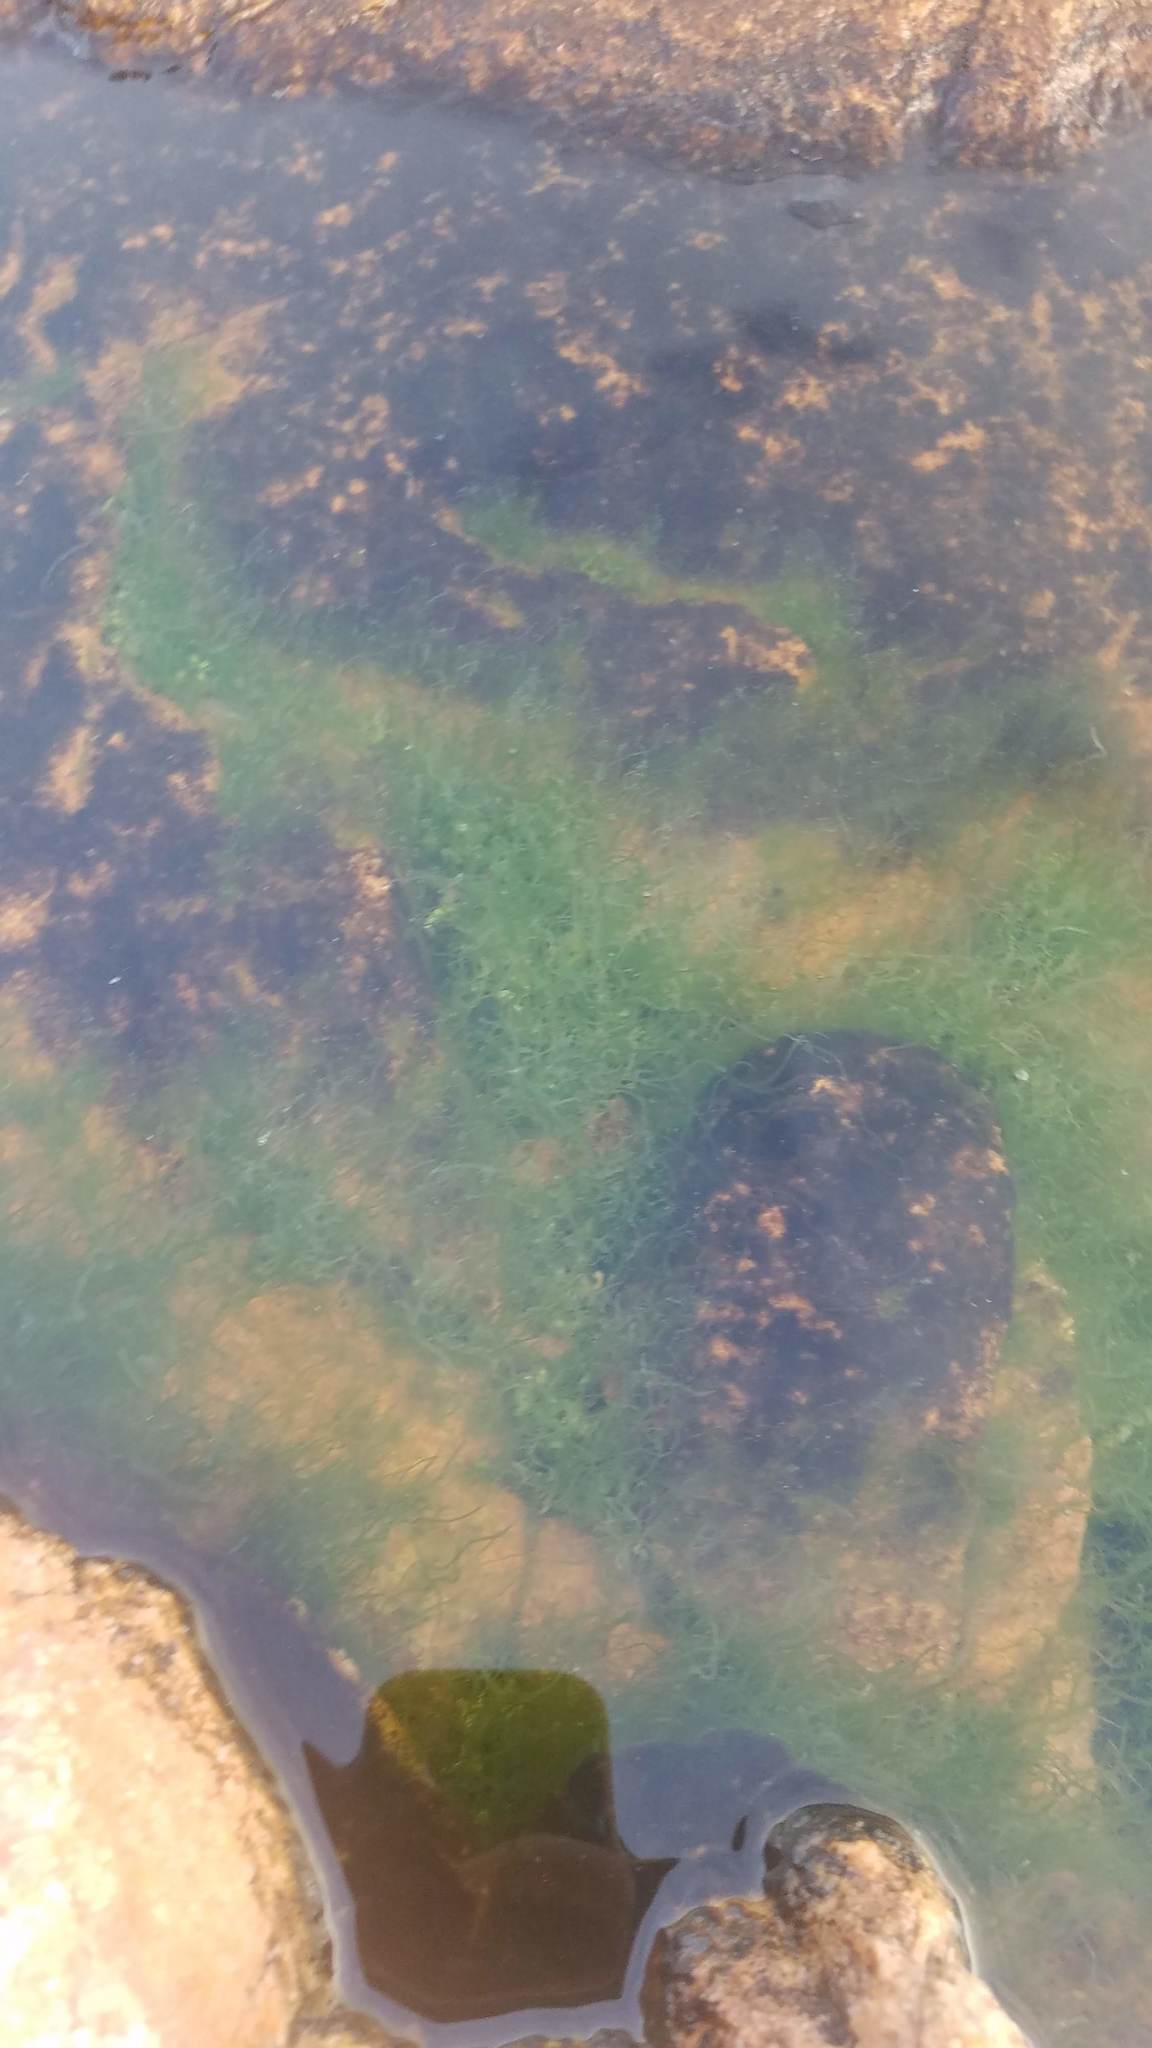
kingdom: Plantae
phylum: Chlorophyta
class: Ulvophyceae
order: Ulvales
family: Ulvaceae
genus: Ulva
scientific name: Ulva intestinalis
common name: Gut weed
